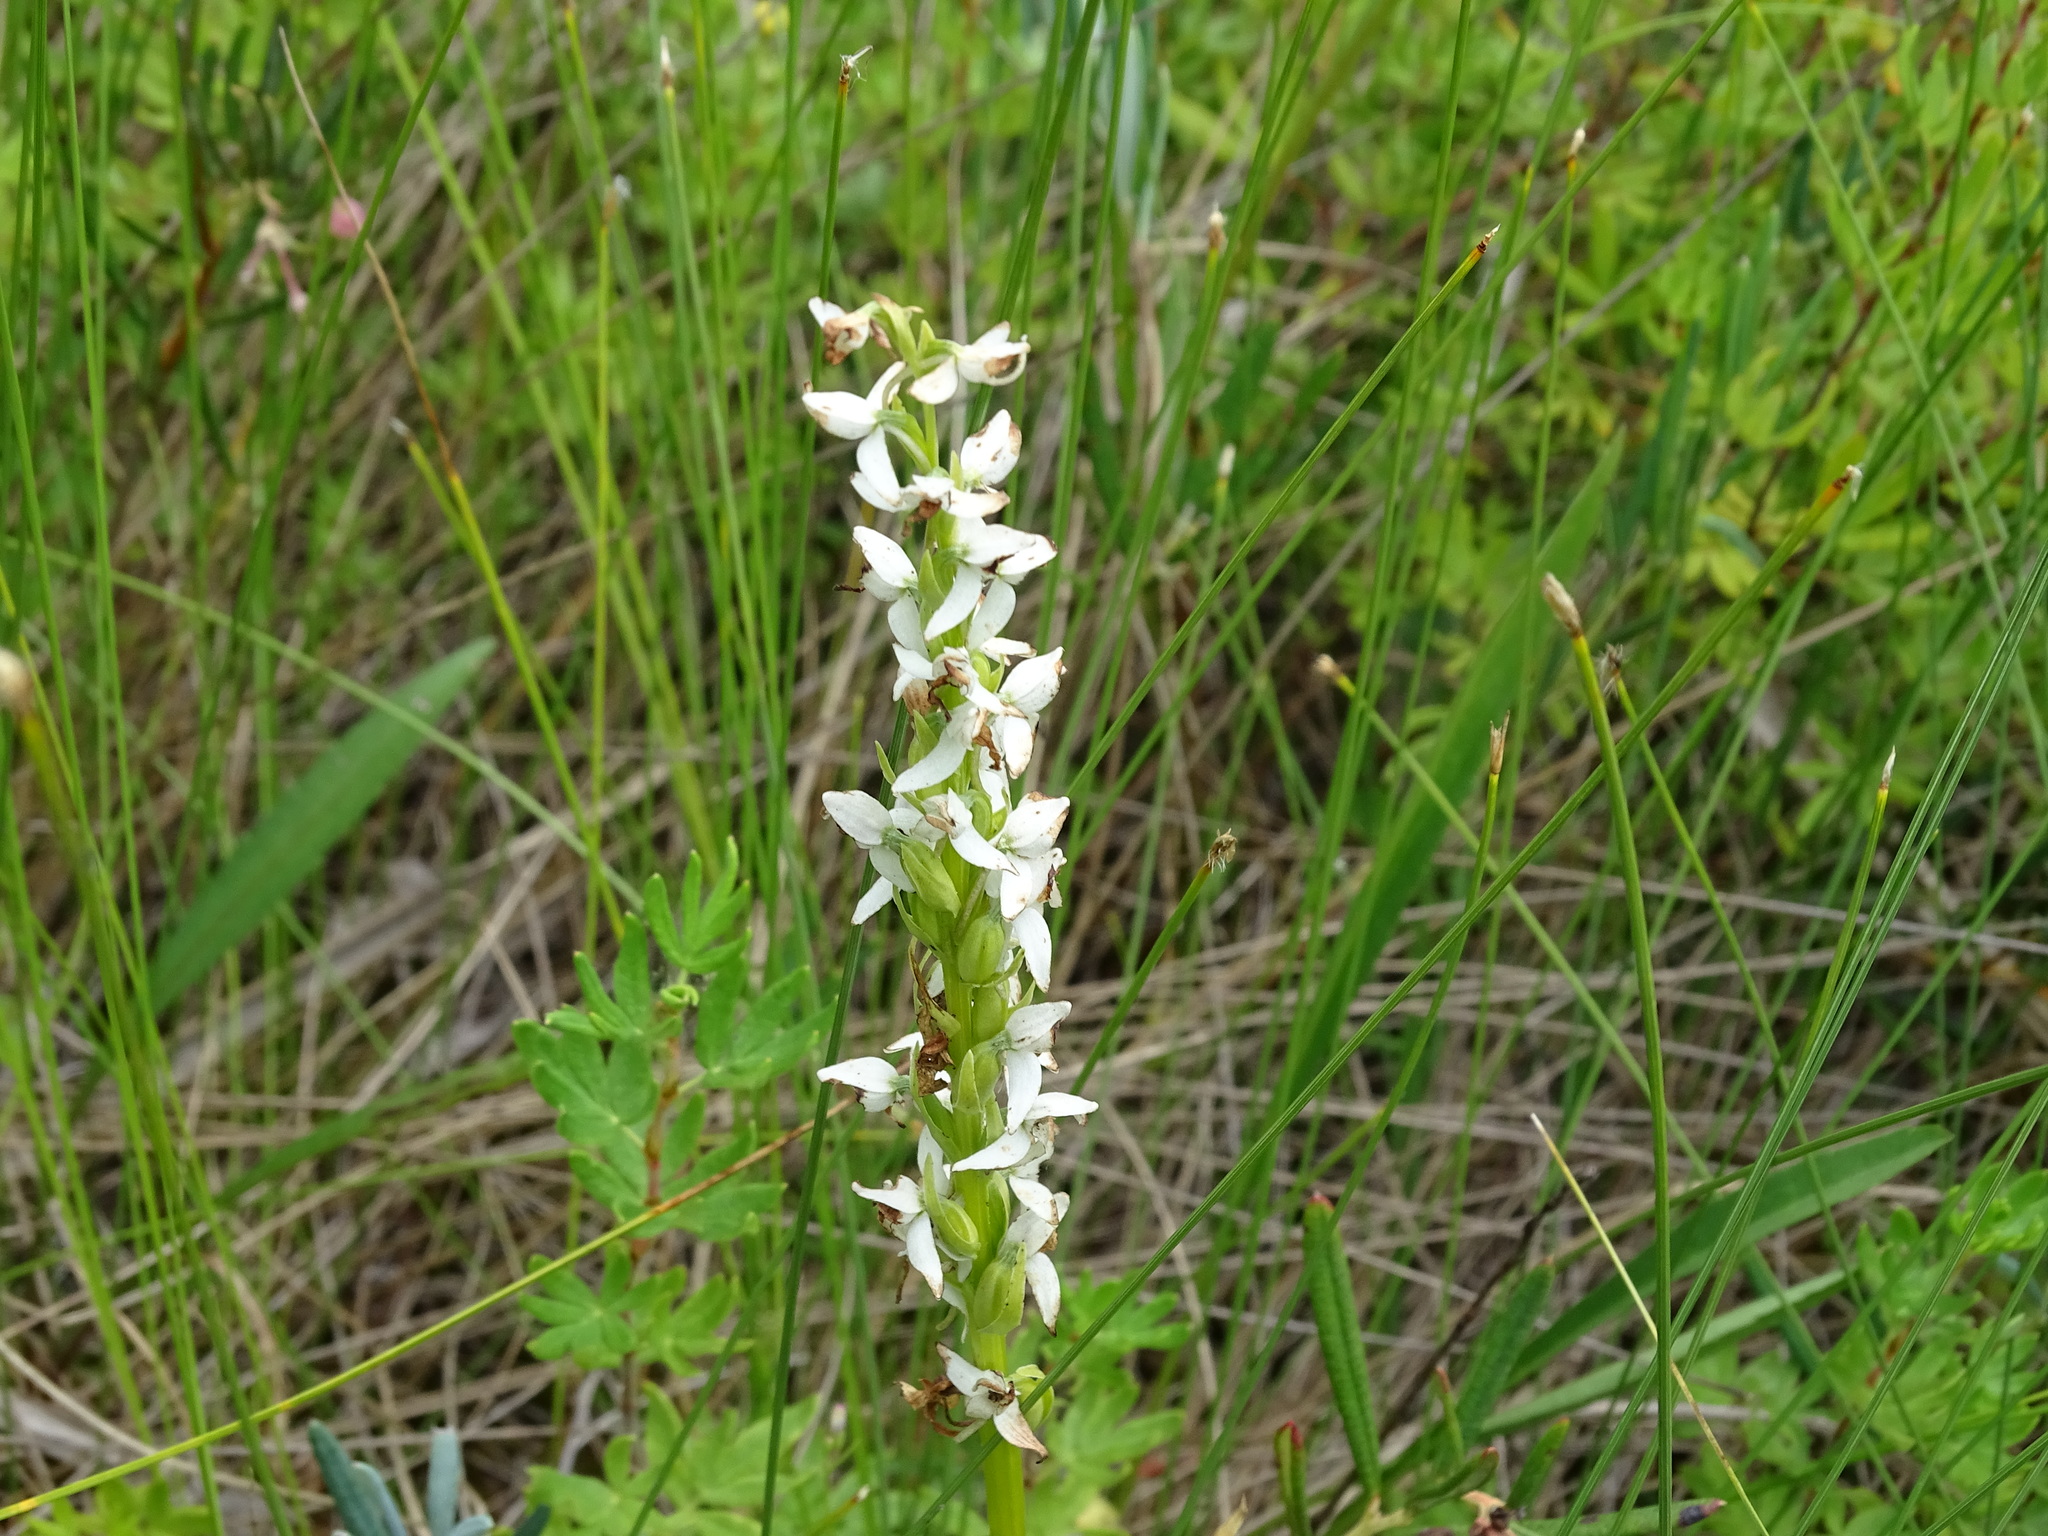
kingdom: Plantae
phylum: Tracheophyta
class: Liliopsida
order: Asparagales
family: Orchidaceae
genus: Platanthera
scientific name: Platanthera dilatata
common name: Bog candles
